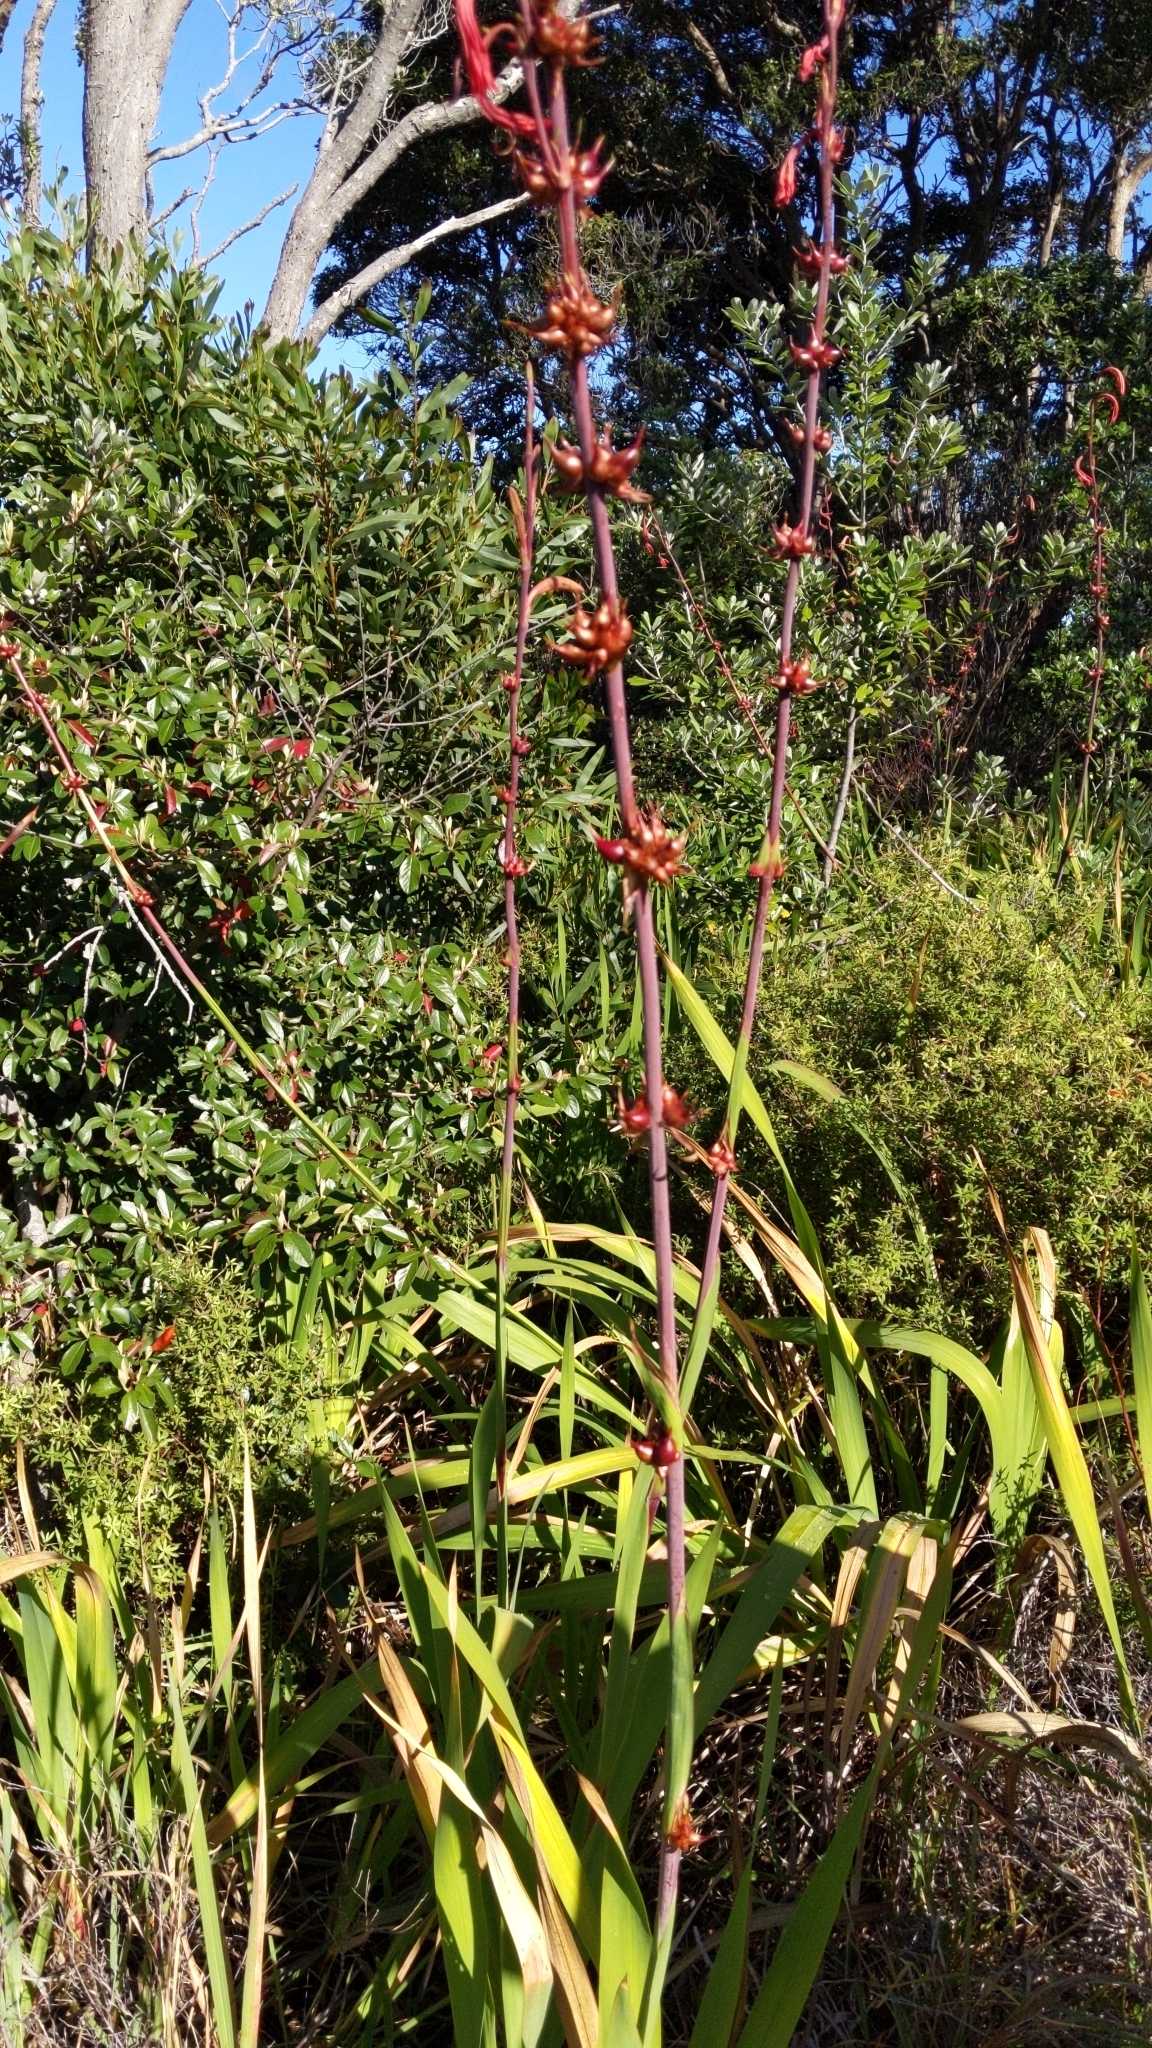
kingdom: Plantae
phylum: Tracheophyta
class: Liliopsida
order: Asparagales
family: Iridaceae
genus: Watsonia
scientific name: Watsonia meriana
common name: Bulbil bugle-lily
